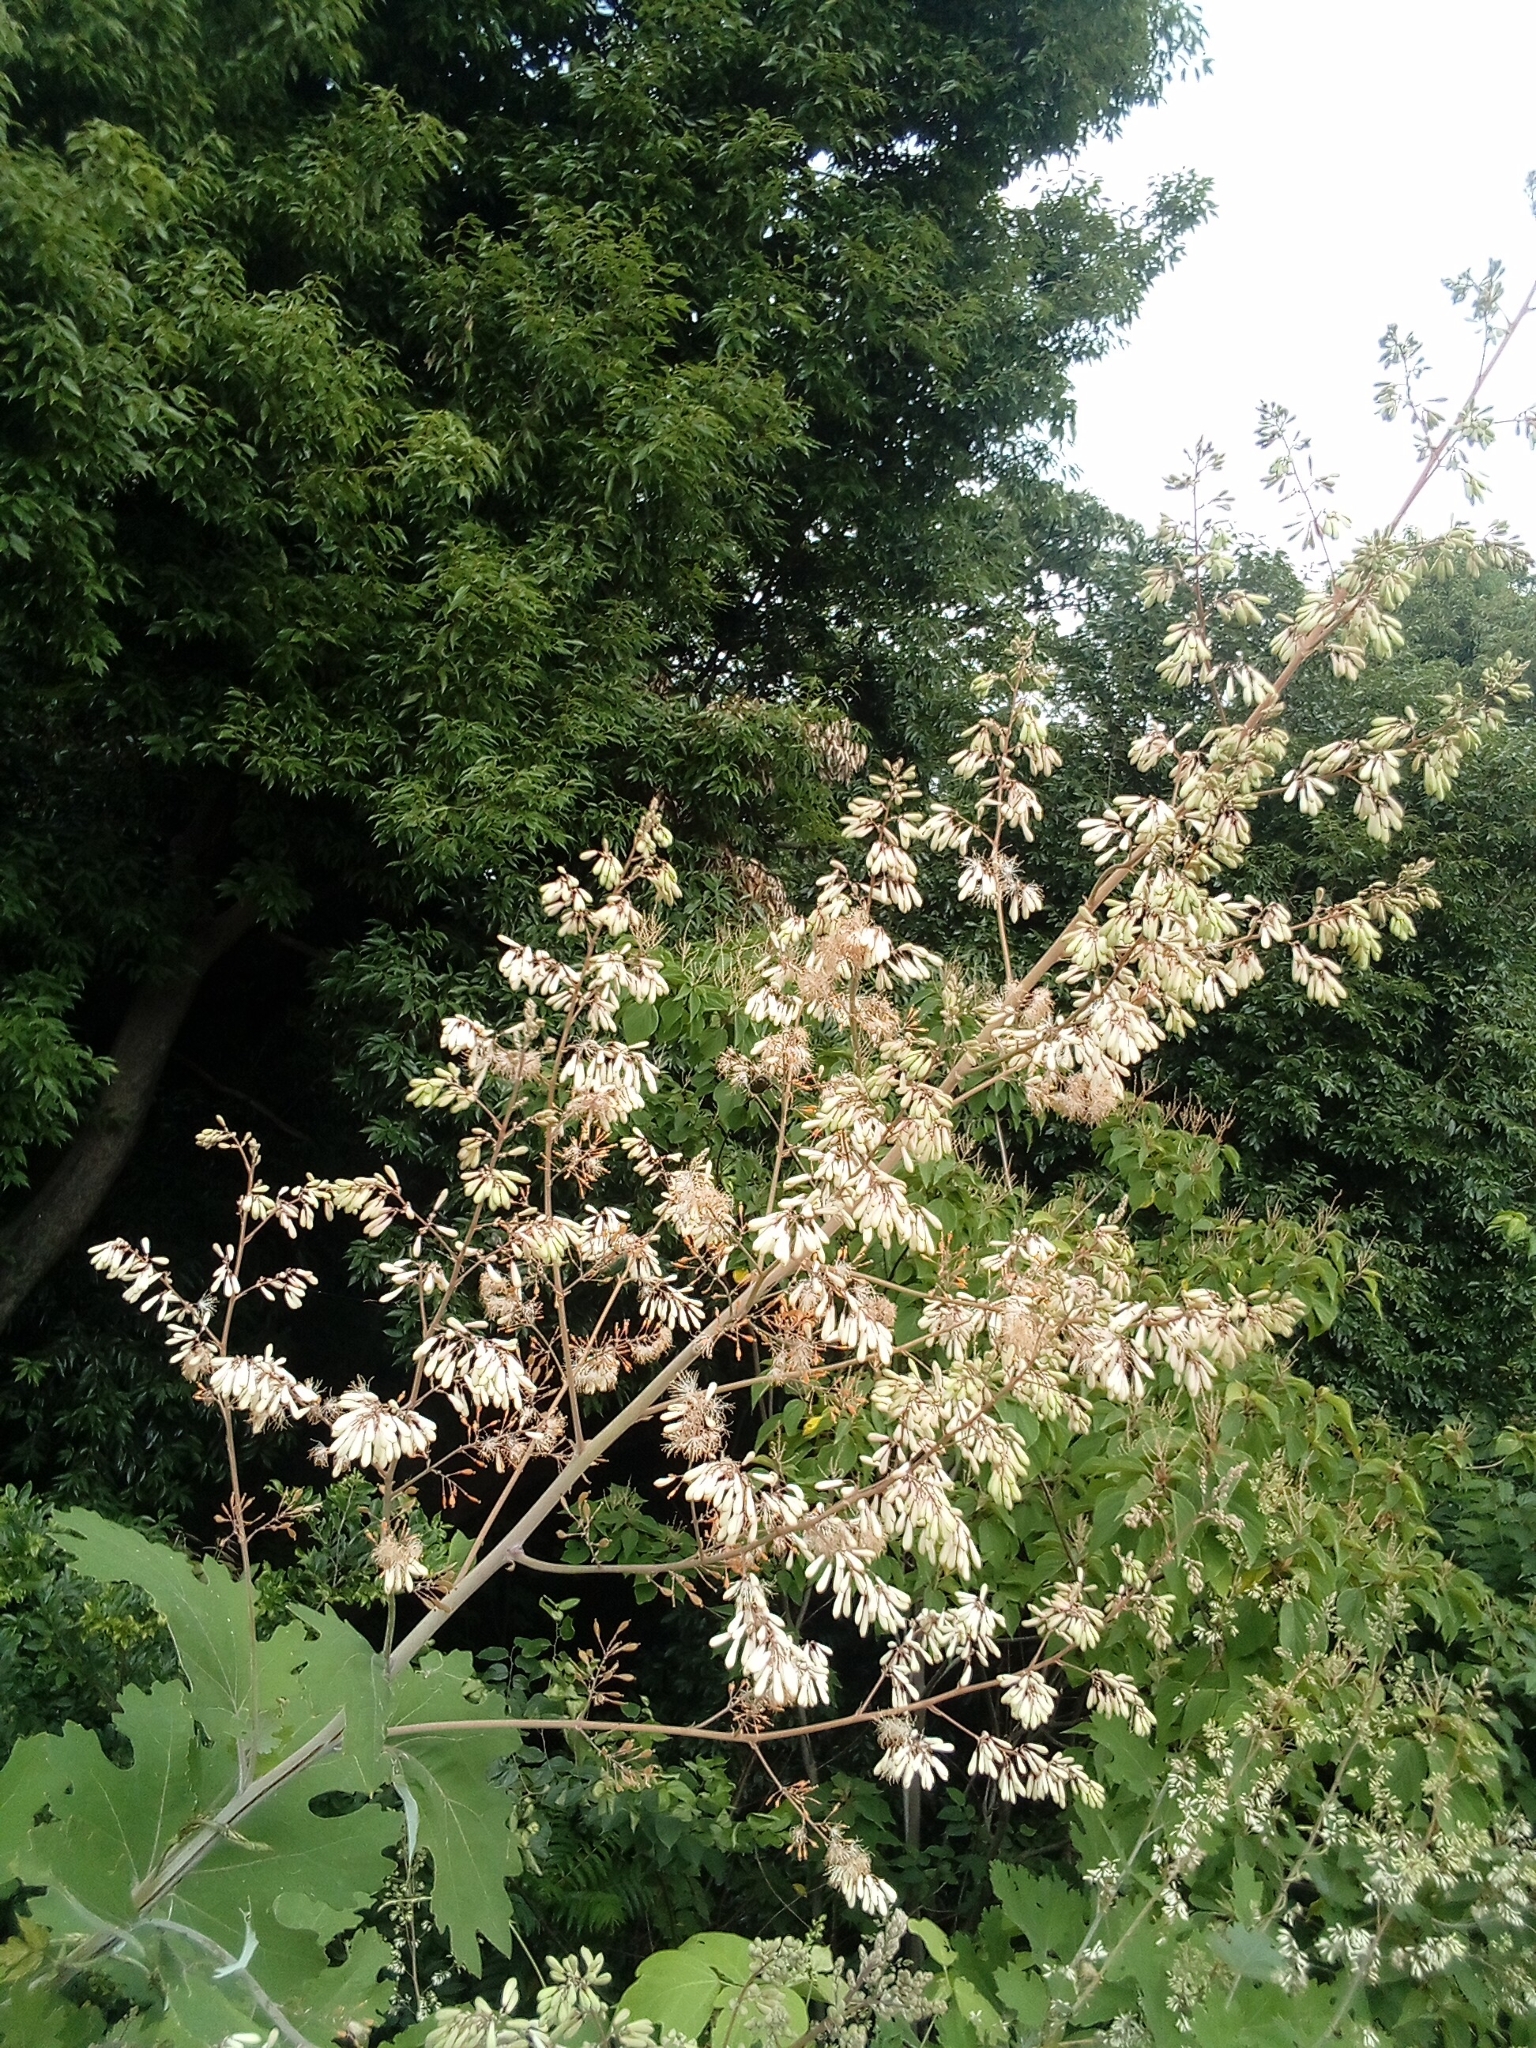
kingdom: Plantae
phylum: Tracheophyta
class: Magnoliopsida
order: Ranunculales
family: Papaveraceae
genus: Macleaya
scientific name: Macleaya cordata
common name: Plume poppy
